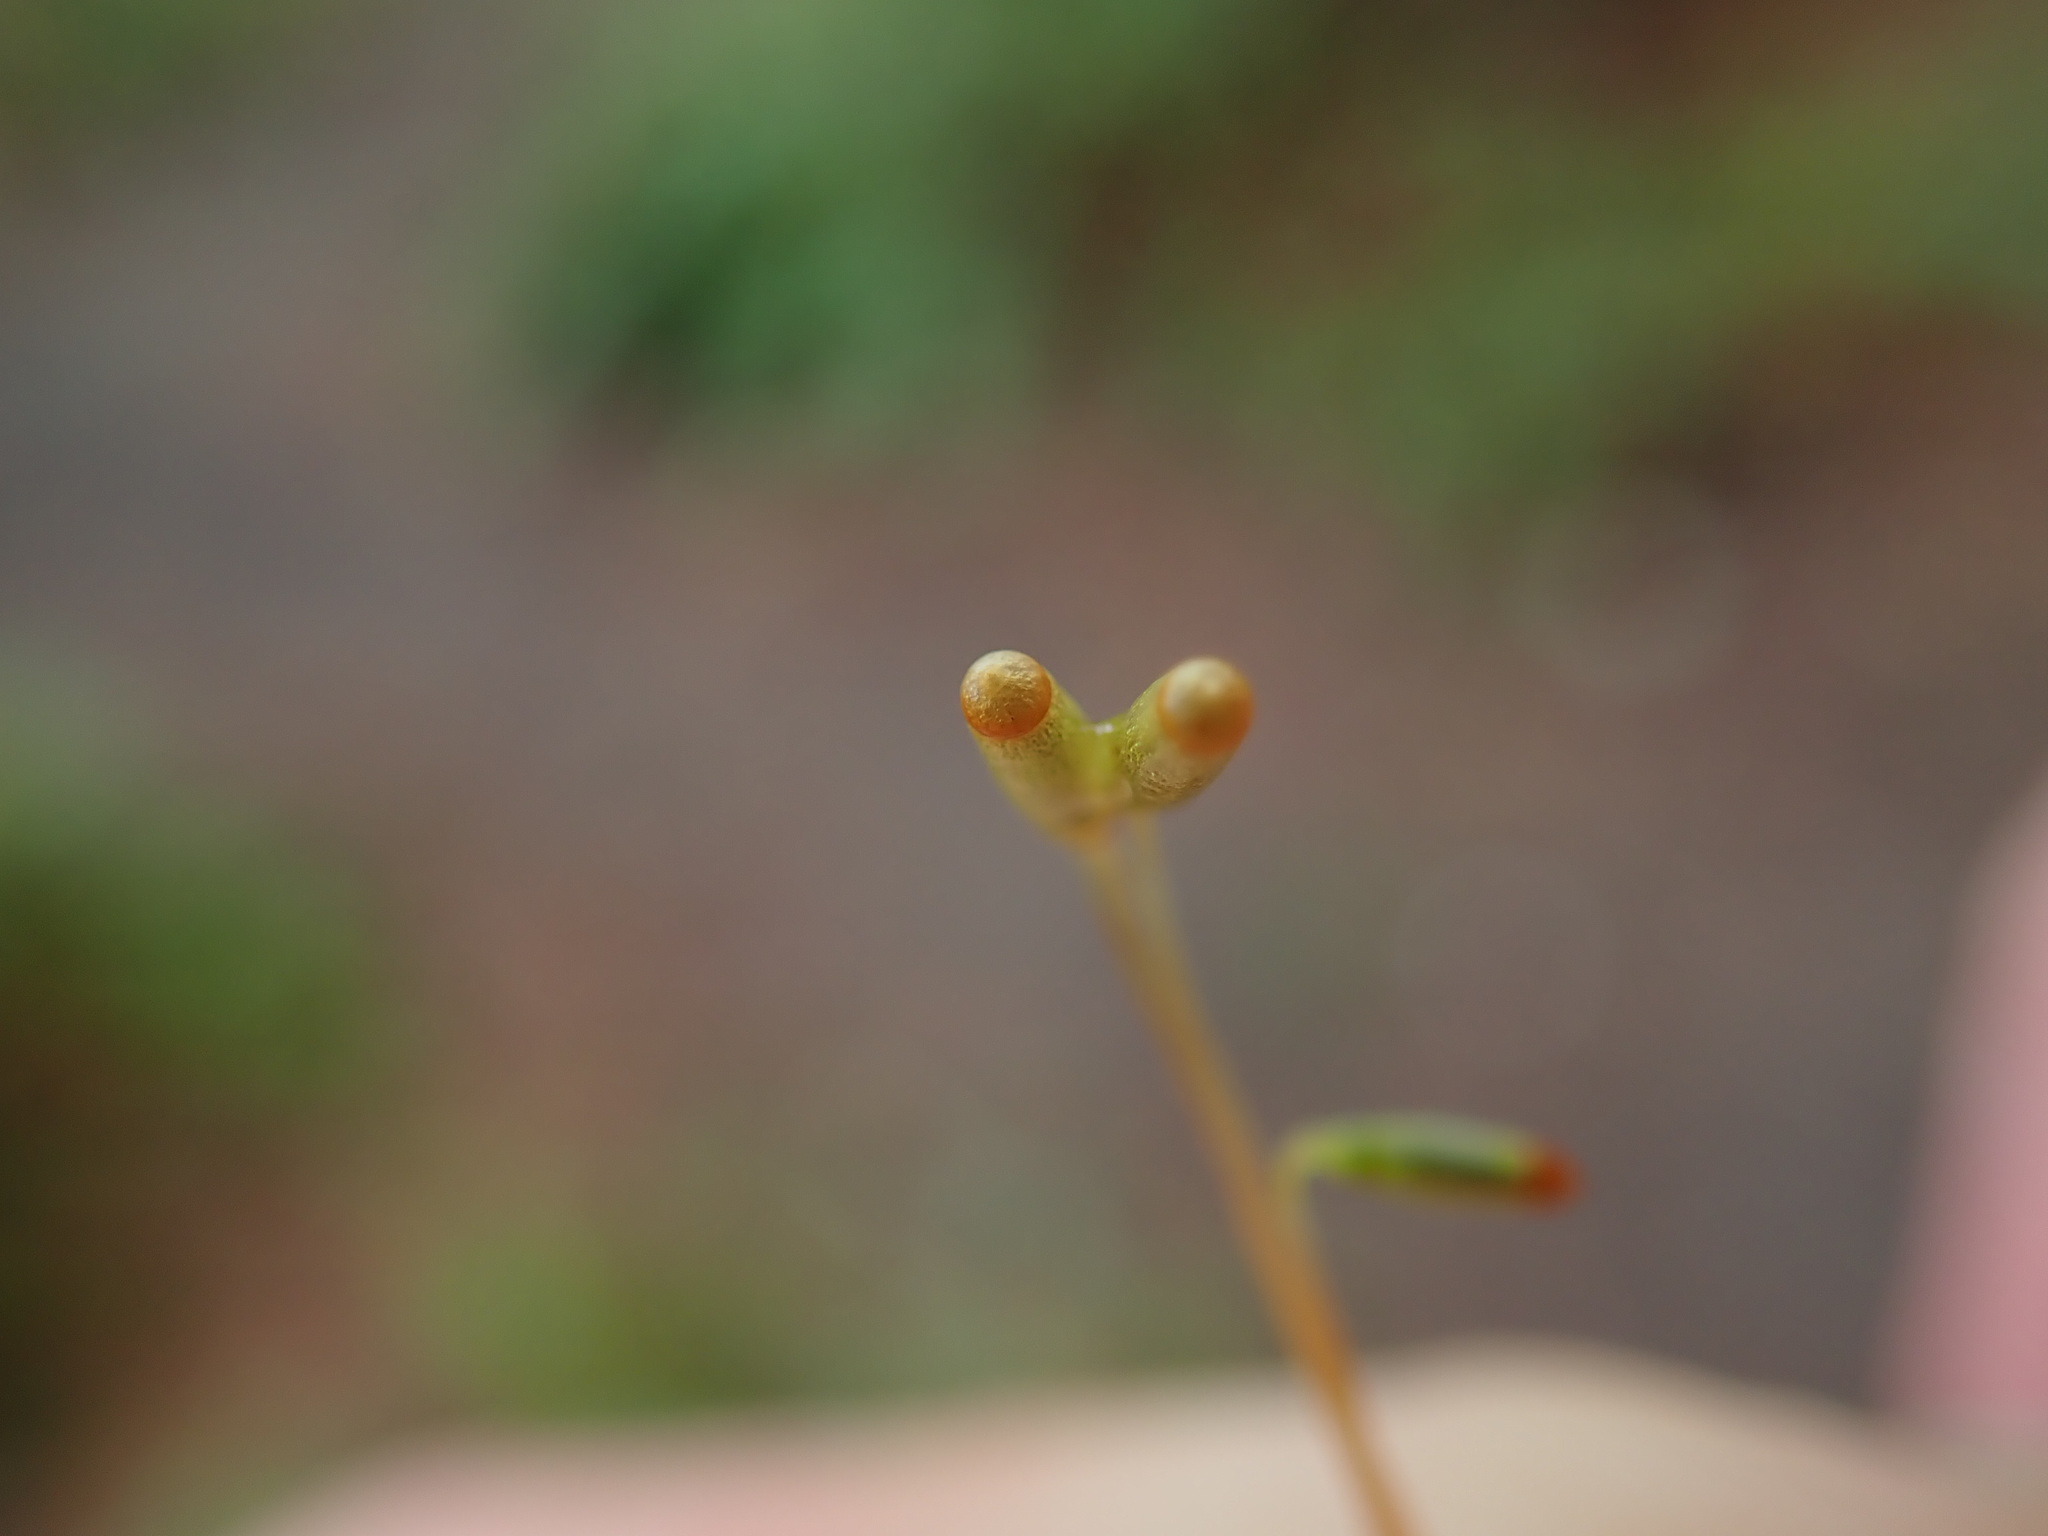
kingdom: Plantae
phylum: Bryophyta
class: Bryopsida
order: Bryales
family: Mniaceae
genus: Plagiomnium
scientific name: Plagiomnium venustum
